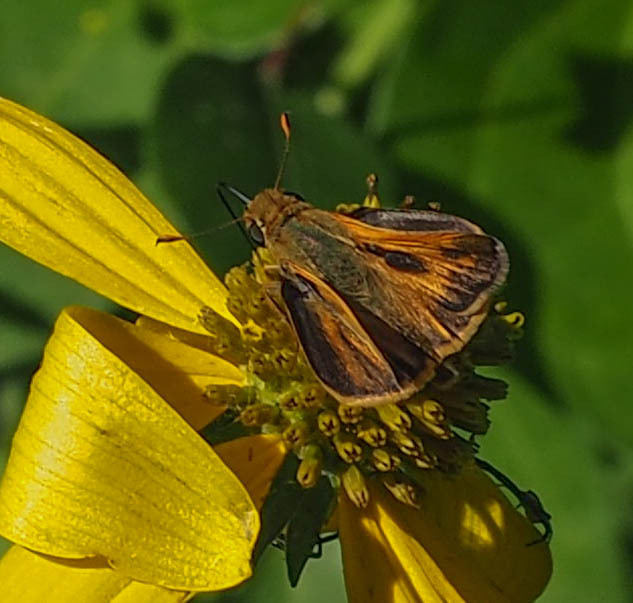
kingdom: Animalia
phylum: Arthropoda
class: Insecta
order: Lepidoptera
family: Hesperiidae
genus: Atalopedes
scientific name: Atalopedes
